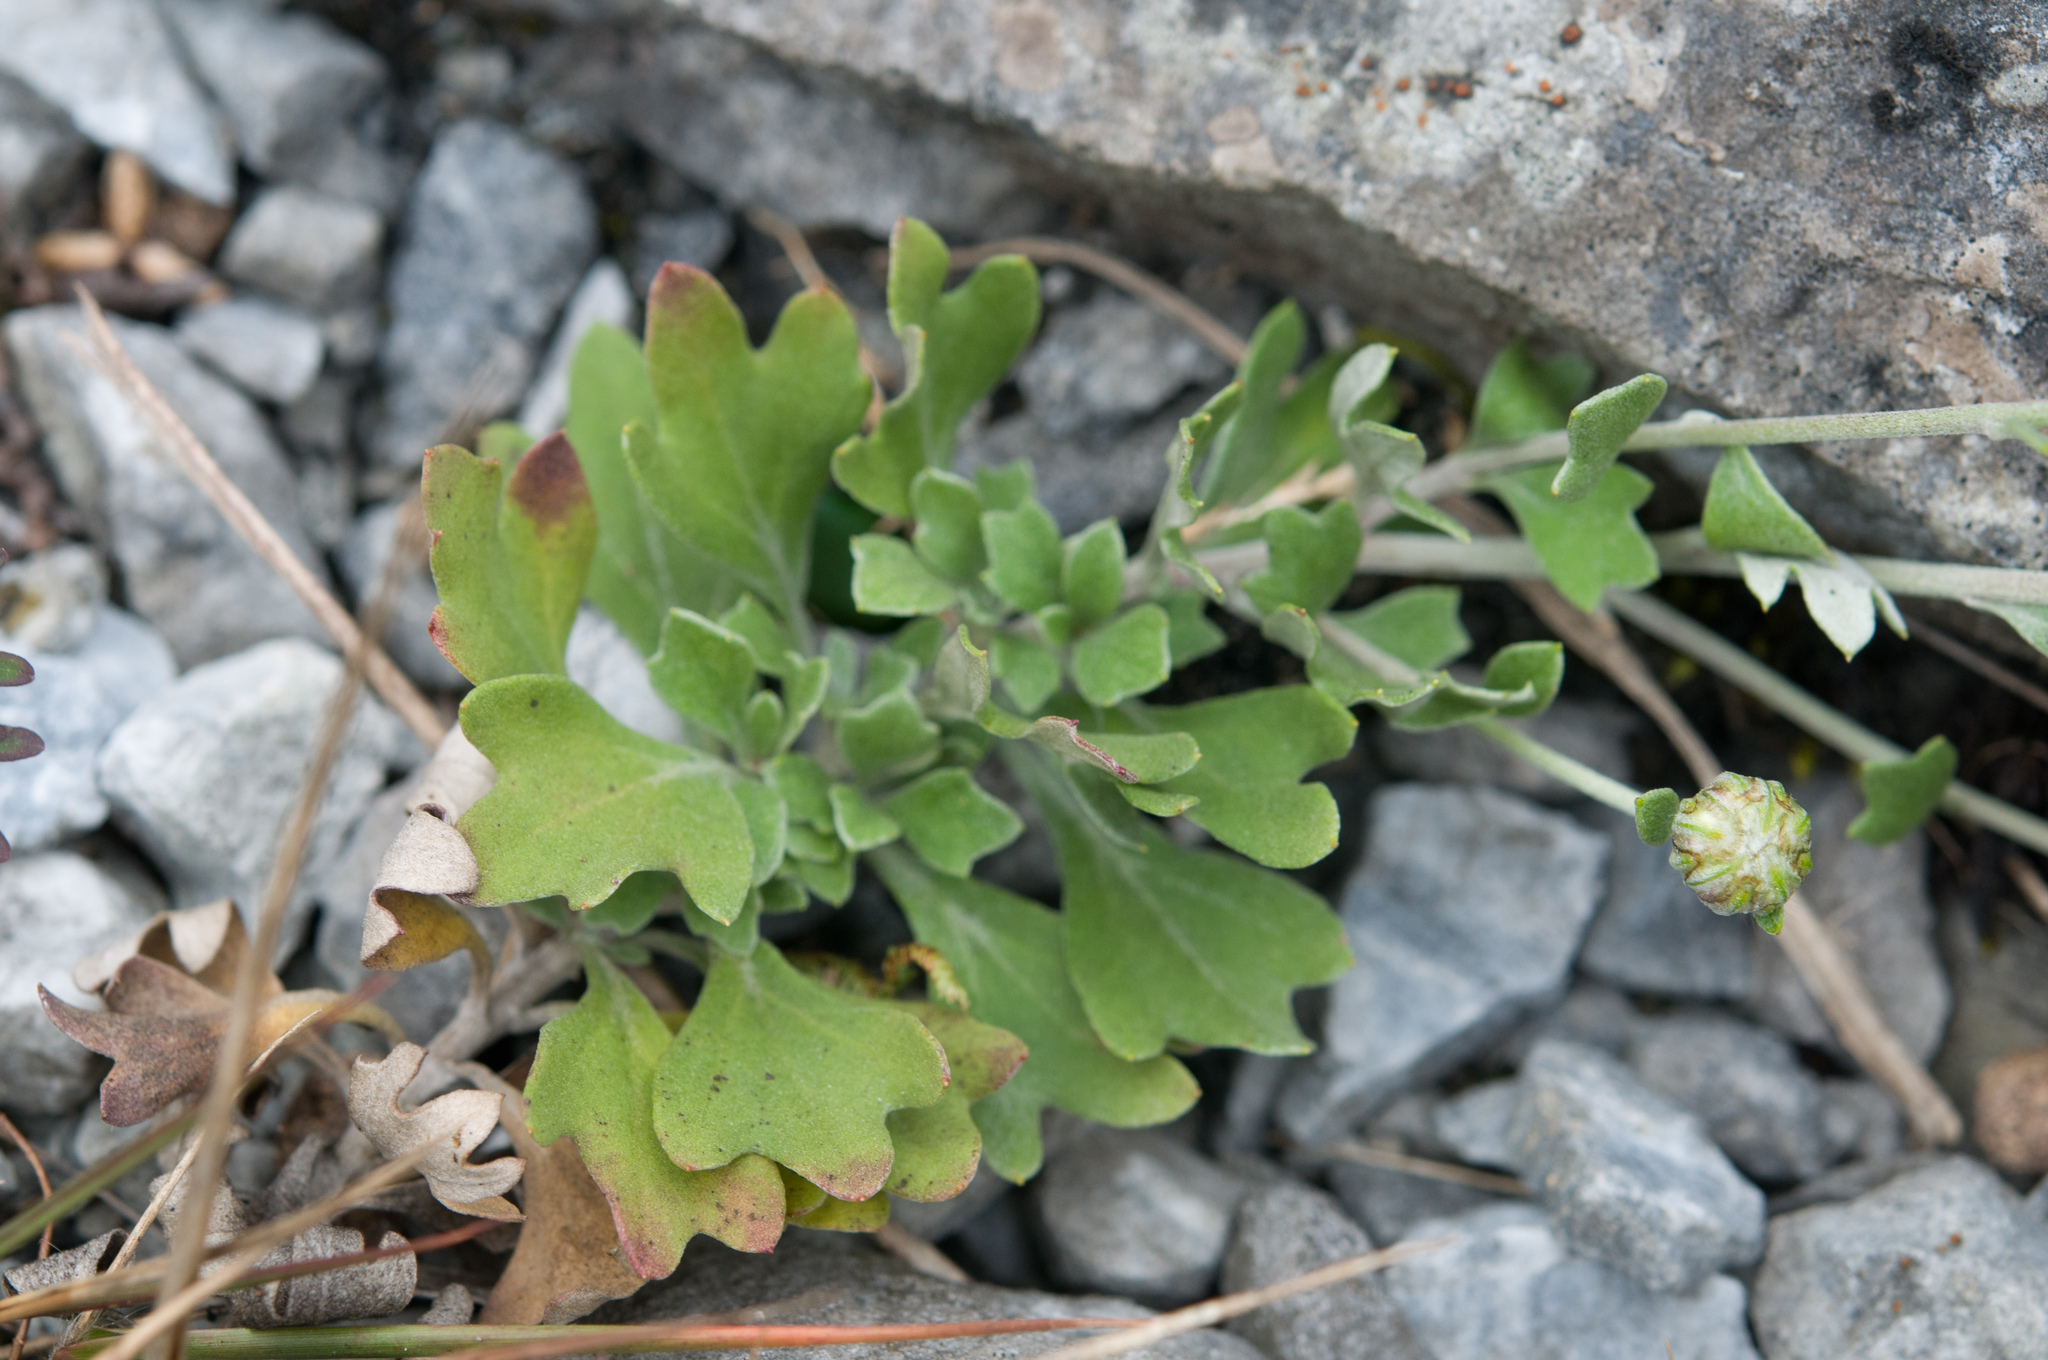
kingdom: Plantae
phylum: Tracheophyta
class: Magnoliopsida
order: Asterales
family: Asteraceae
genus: Chrysanthemum
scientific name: Chrysanthemum morii
